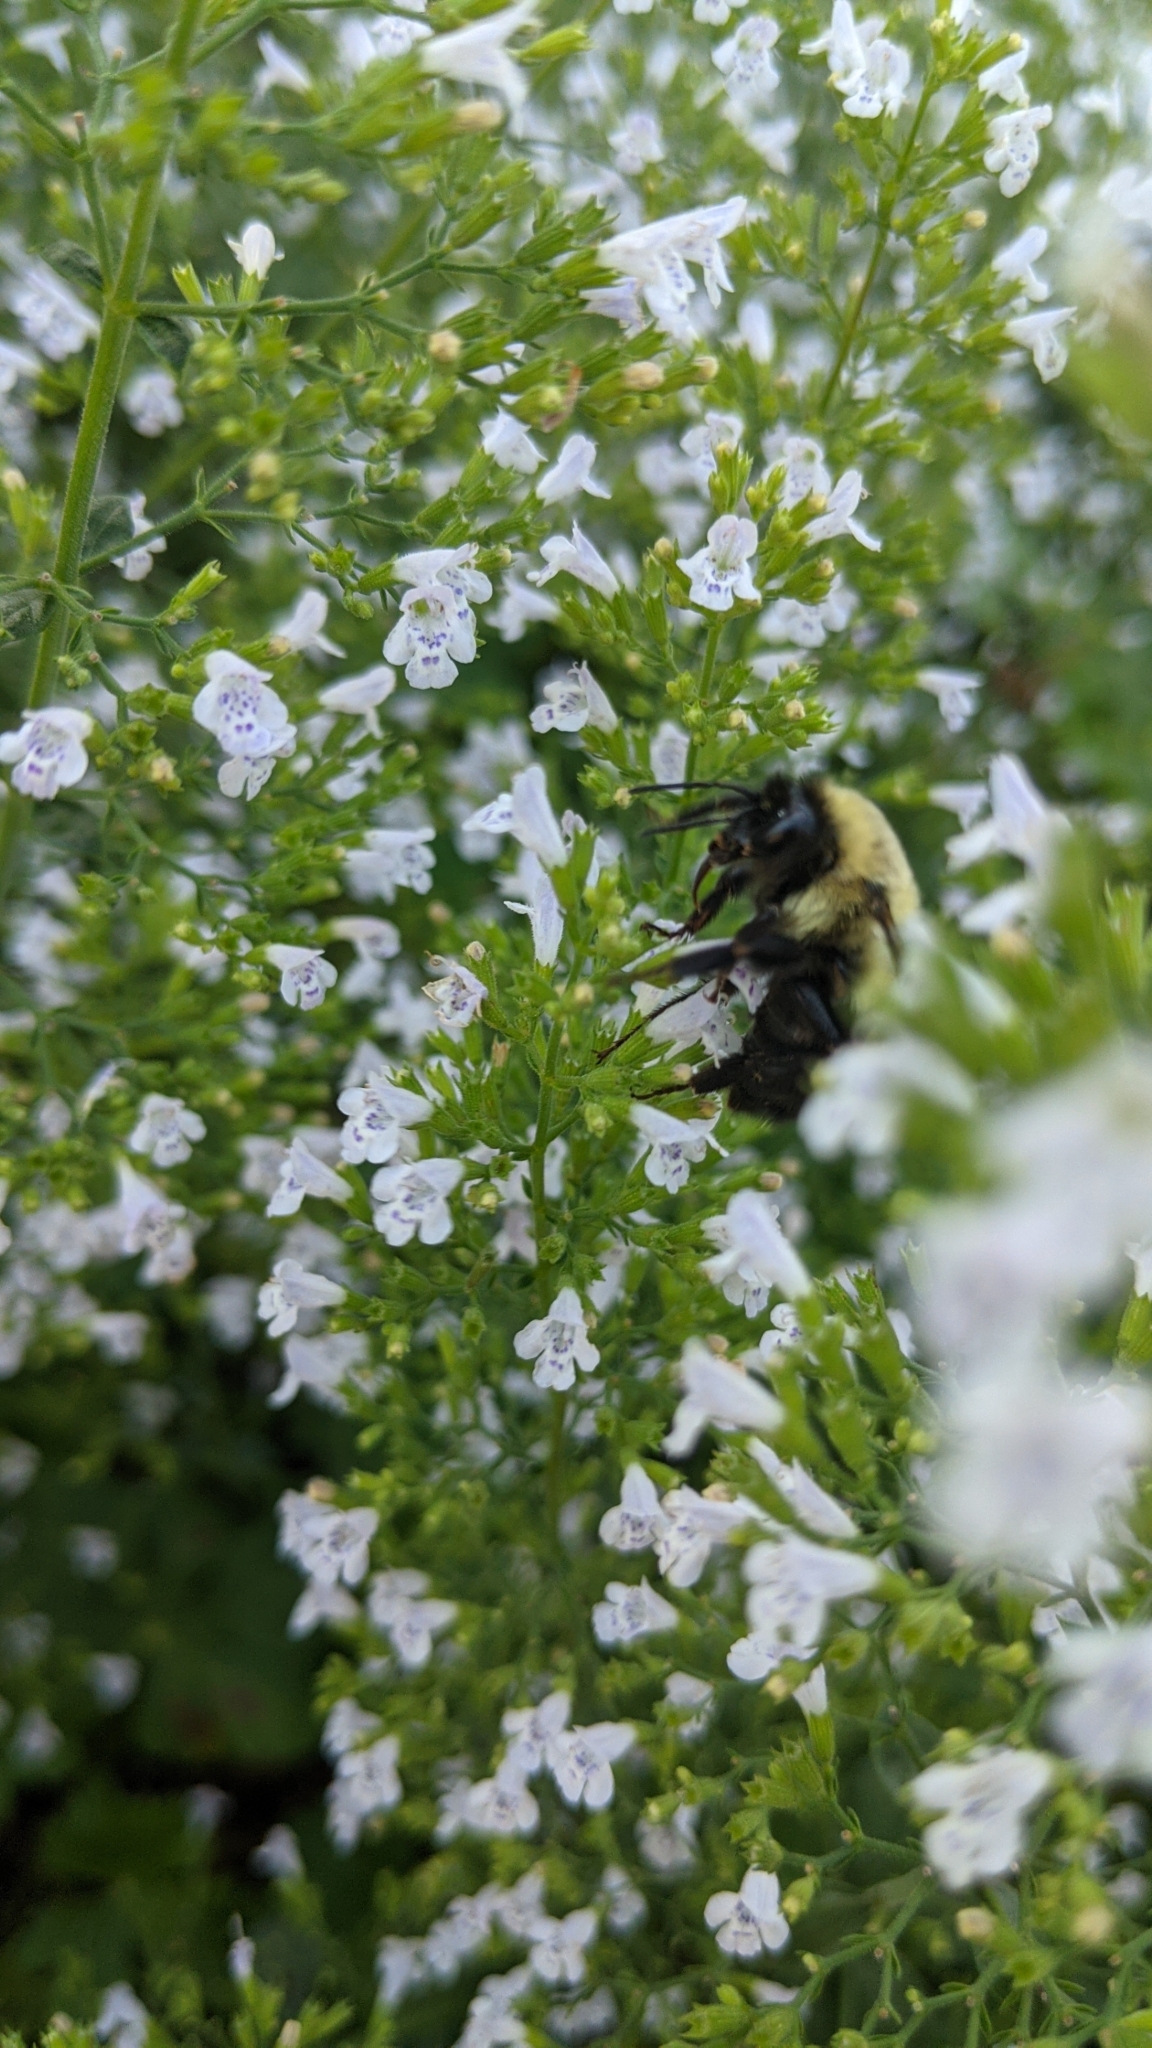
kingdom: Animalia
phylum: Arthropoda
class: Insecta
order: Hymenoptera
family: Apidae
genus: Bombus
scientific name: Bombus impatiens
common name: Common eastern bumble bee
